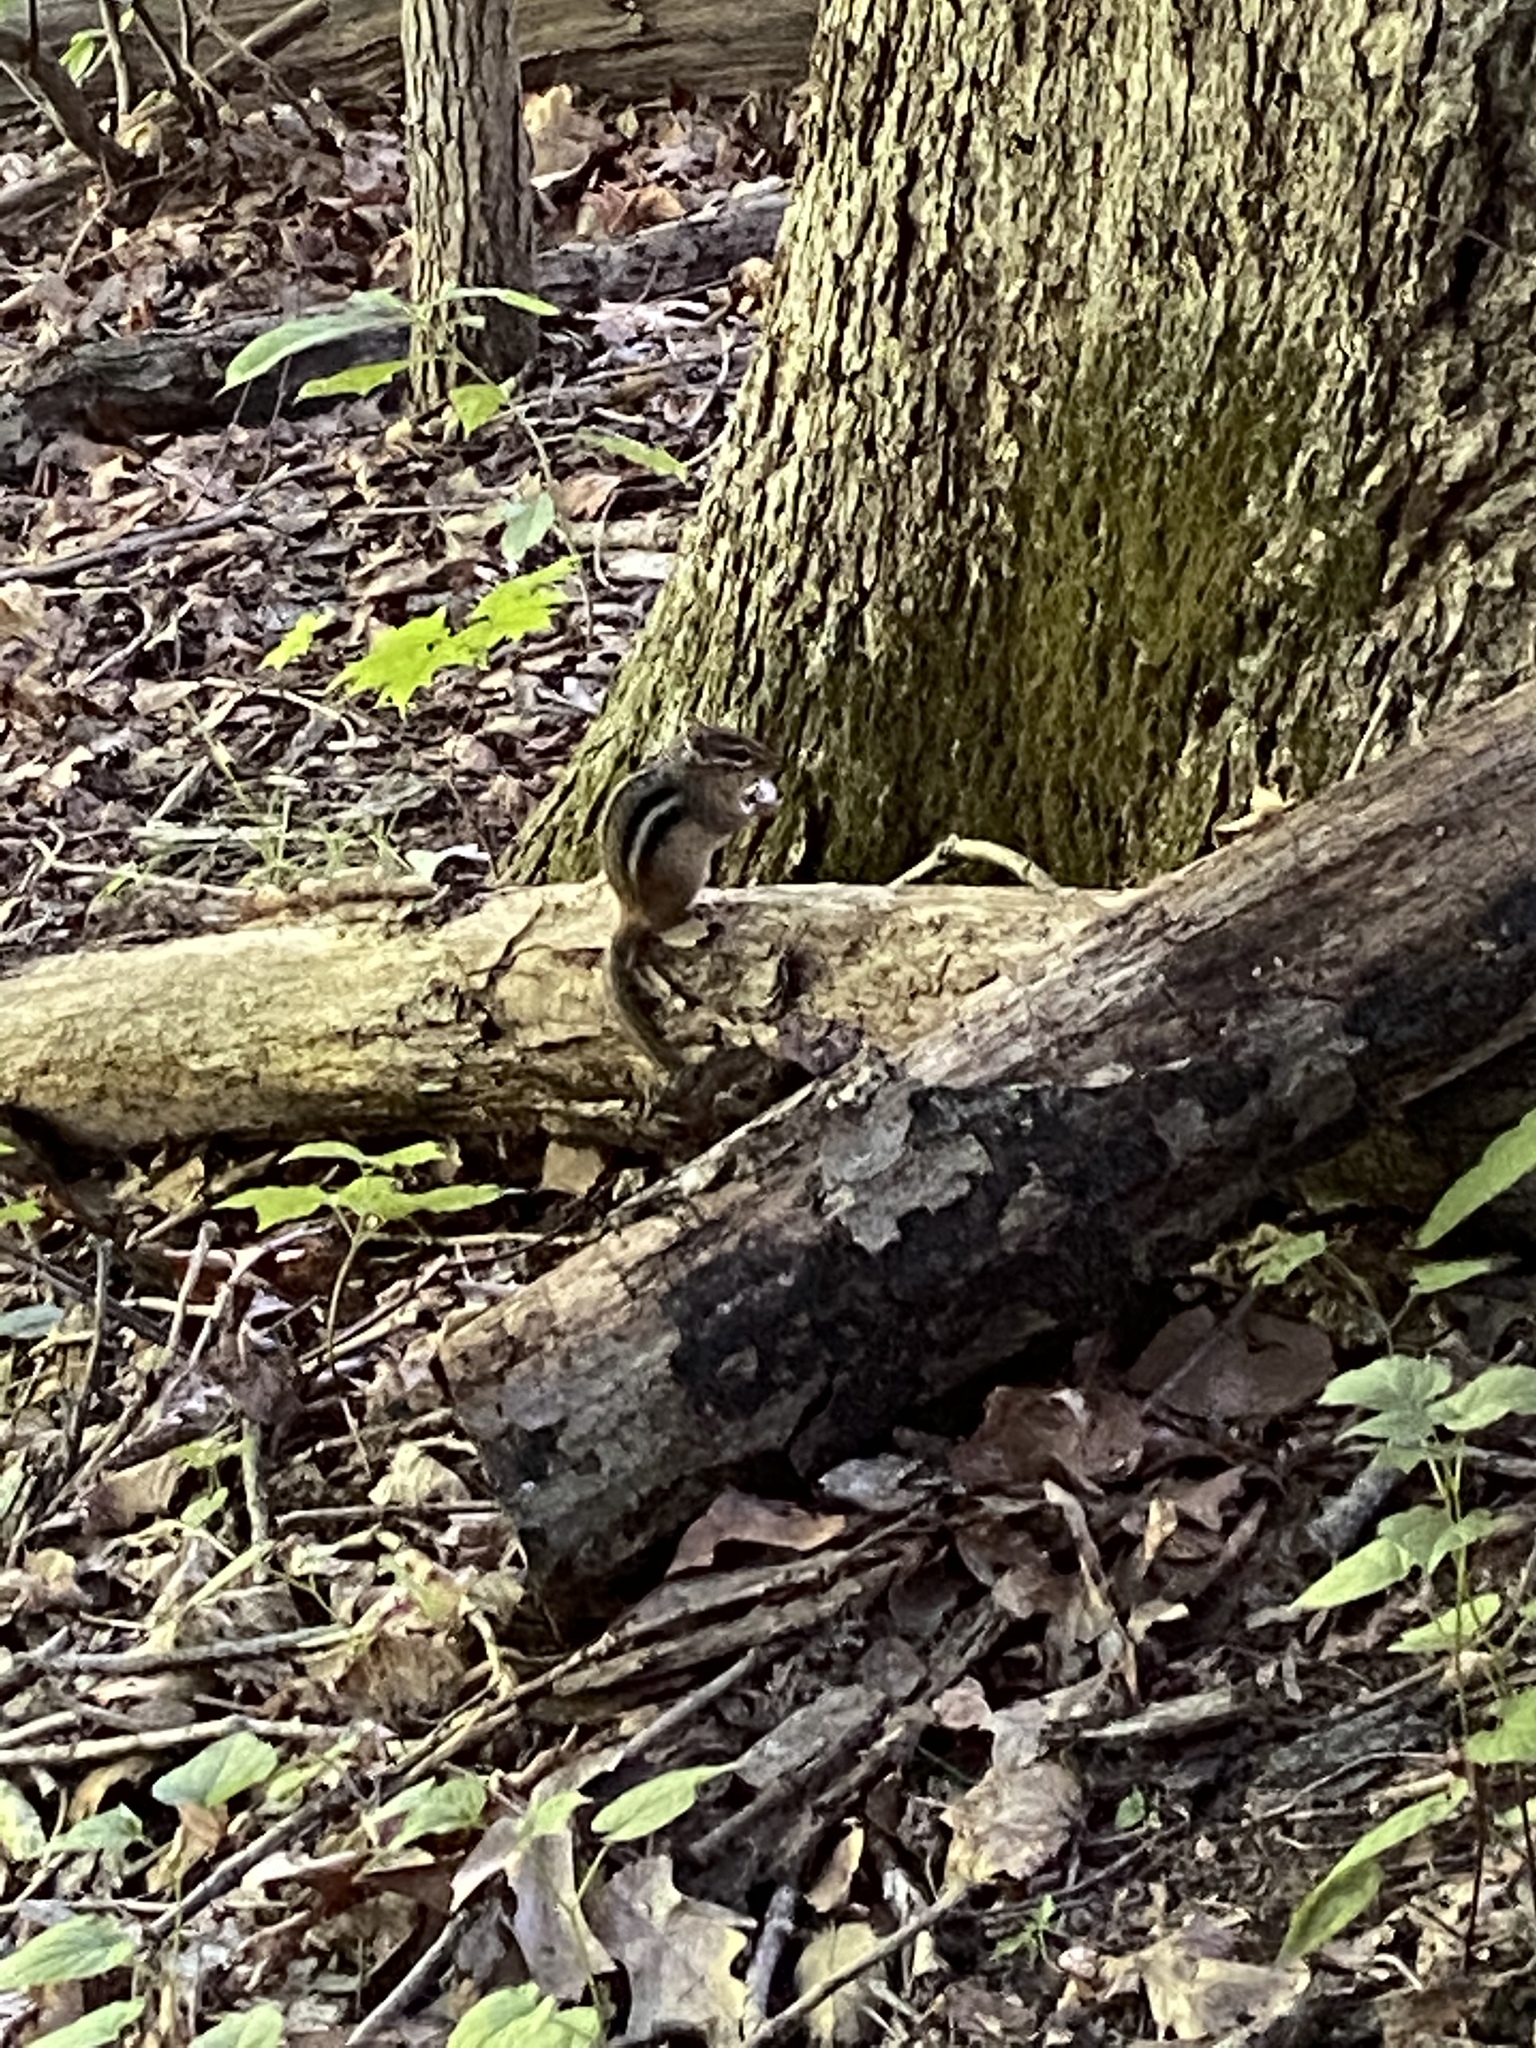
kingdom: Animalia
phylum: Chordata
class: Mammalia
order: Rodentia
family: Sciuridae
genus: Tamias
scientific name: Tamias striatus
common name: Eastern chipmunk
